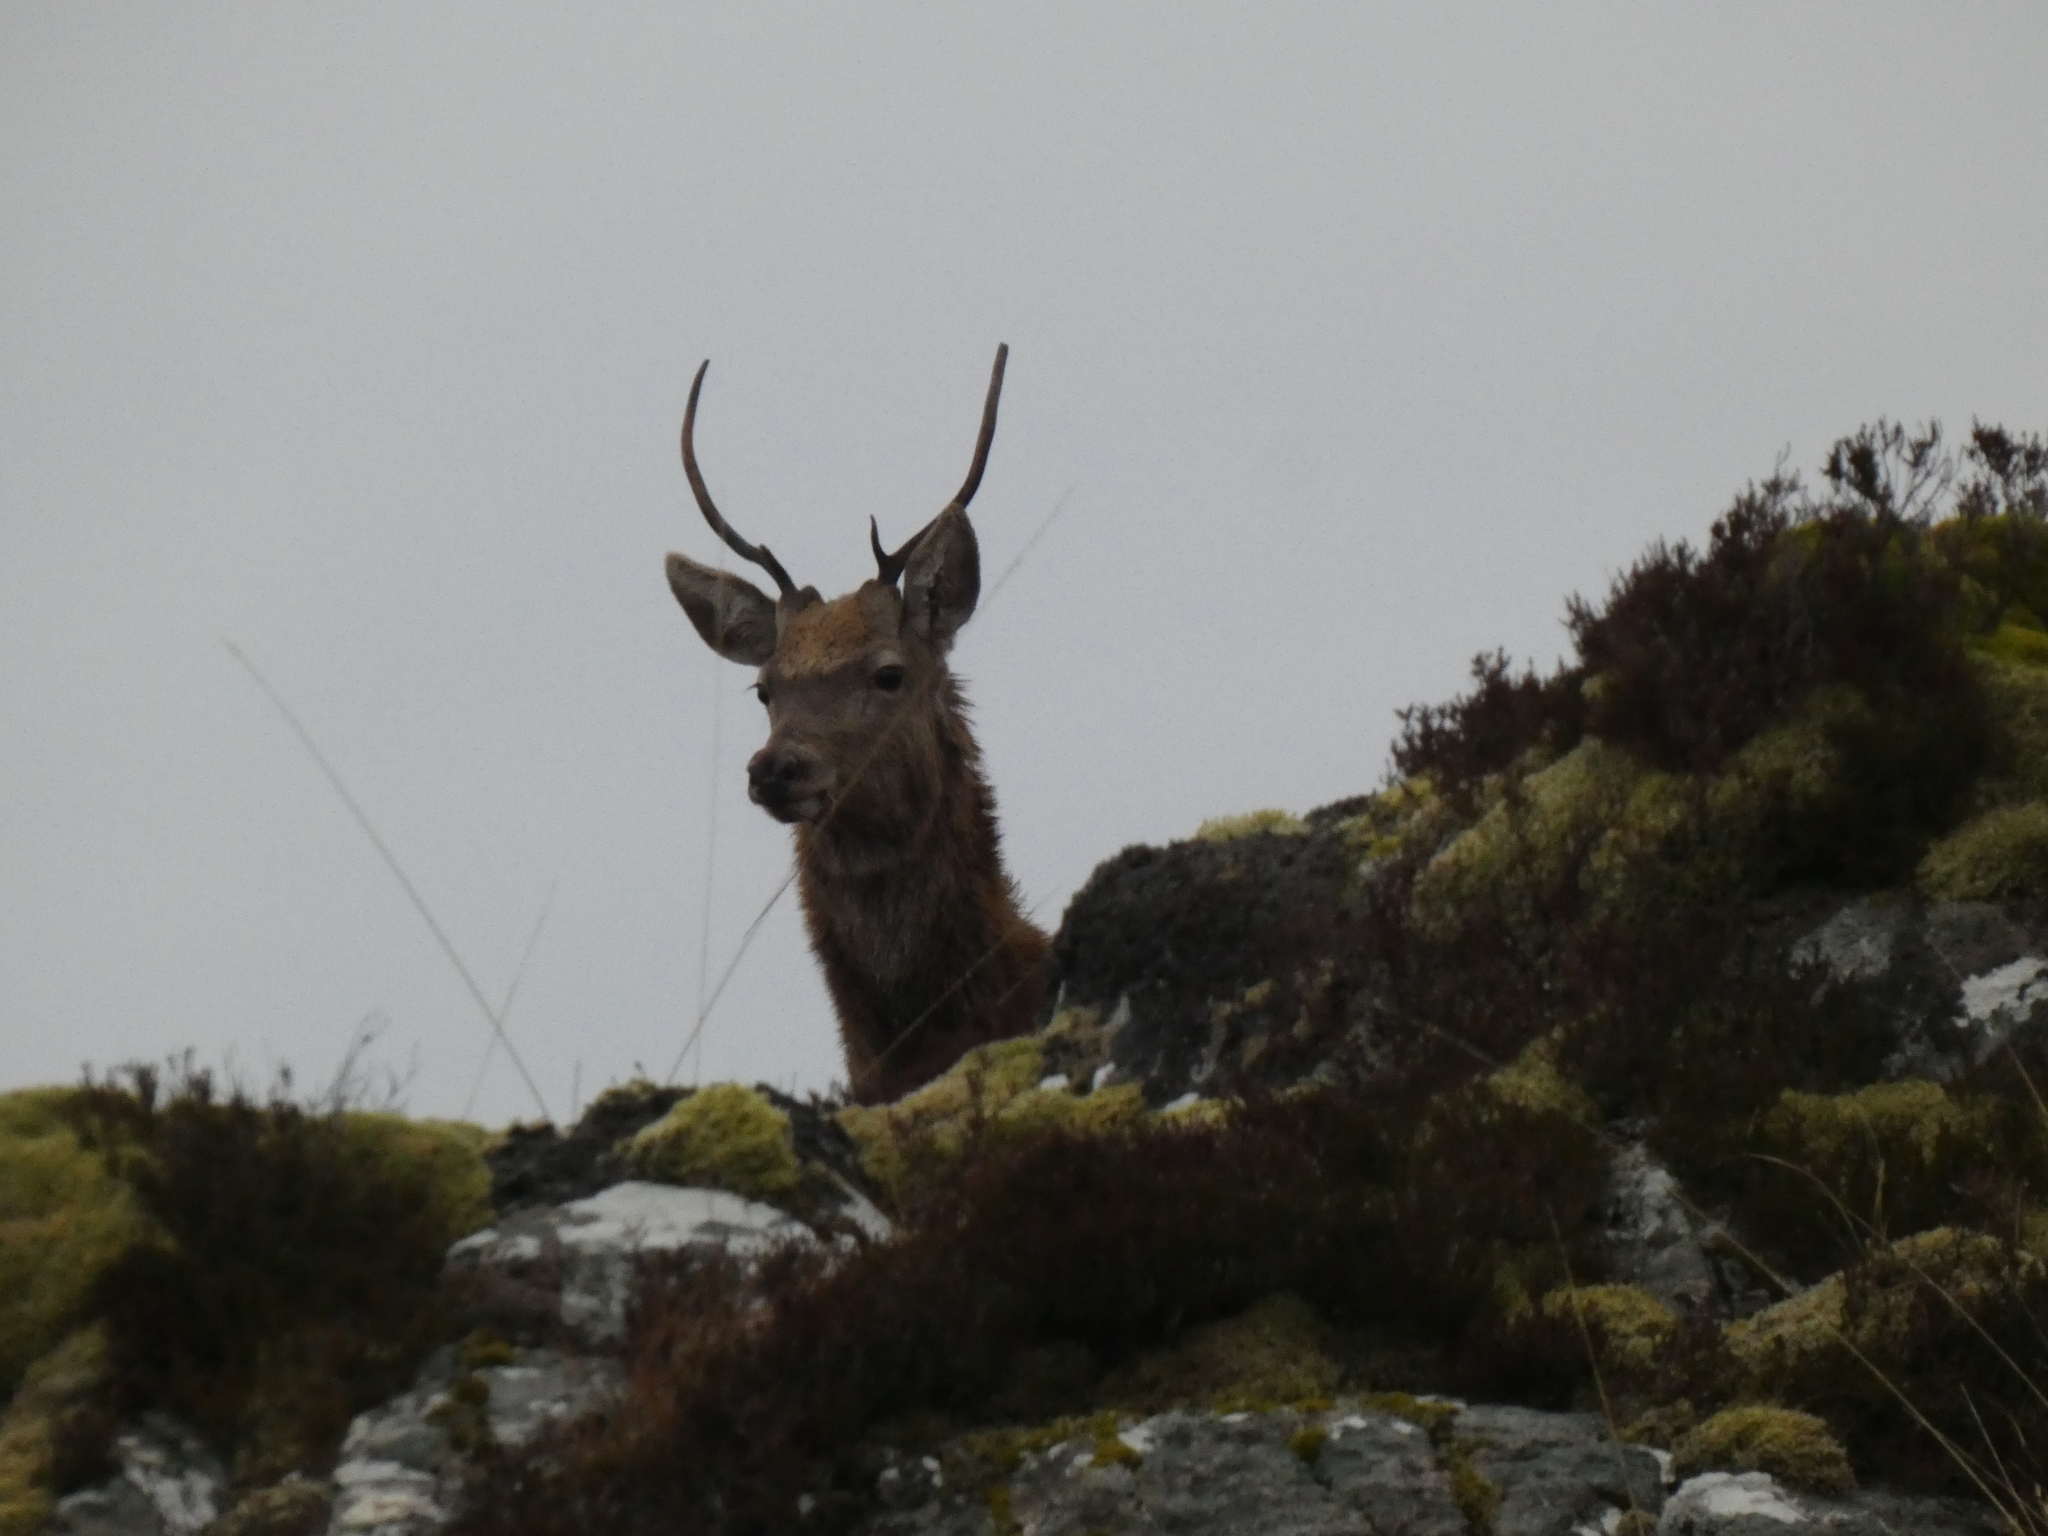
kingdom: Animalia
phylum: Chordata
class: Mammalia
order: Artiodactyla
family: Cervidae
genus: Cervus
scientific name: Cervus elaphus
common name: Red deer
